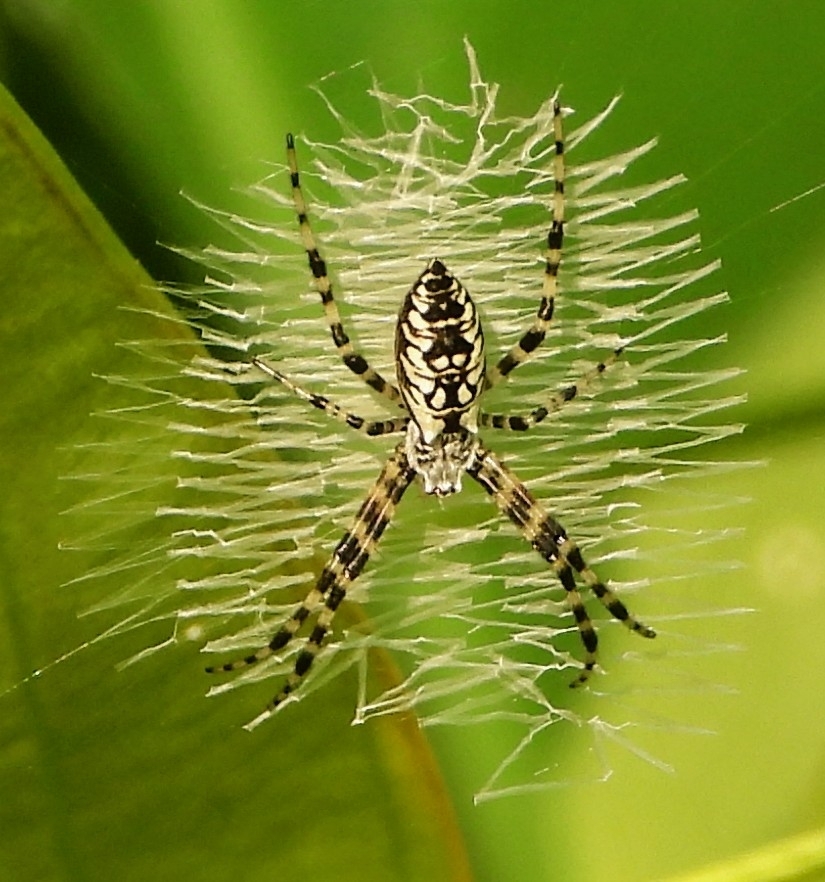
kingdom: Animalia
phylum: Arthropoda
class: Arachnida
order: Araneae
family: Araneidae
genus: Argiope
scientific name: Argiope aurantia
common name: Orb weavers
